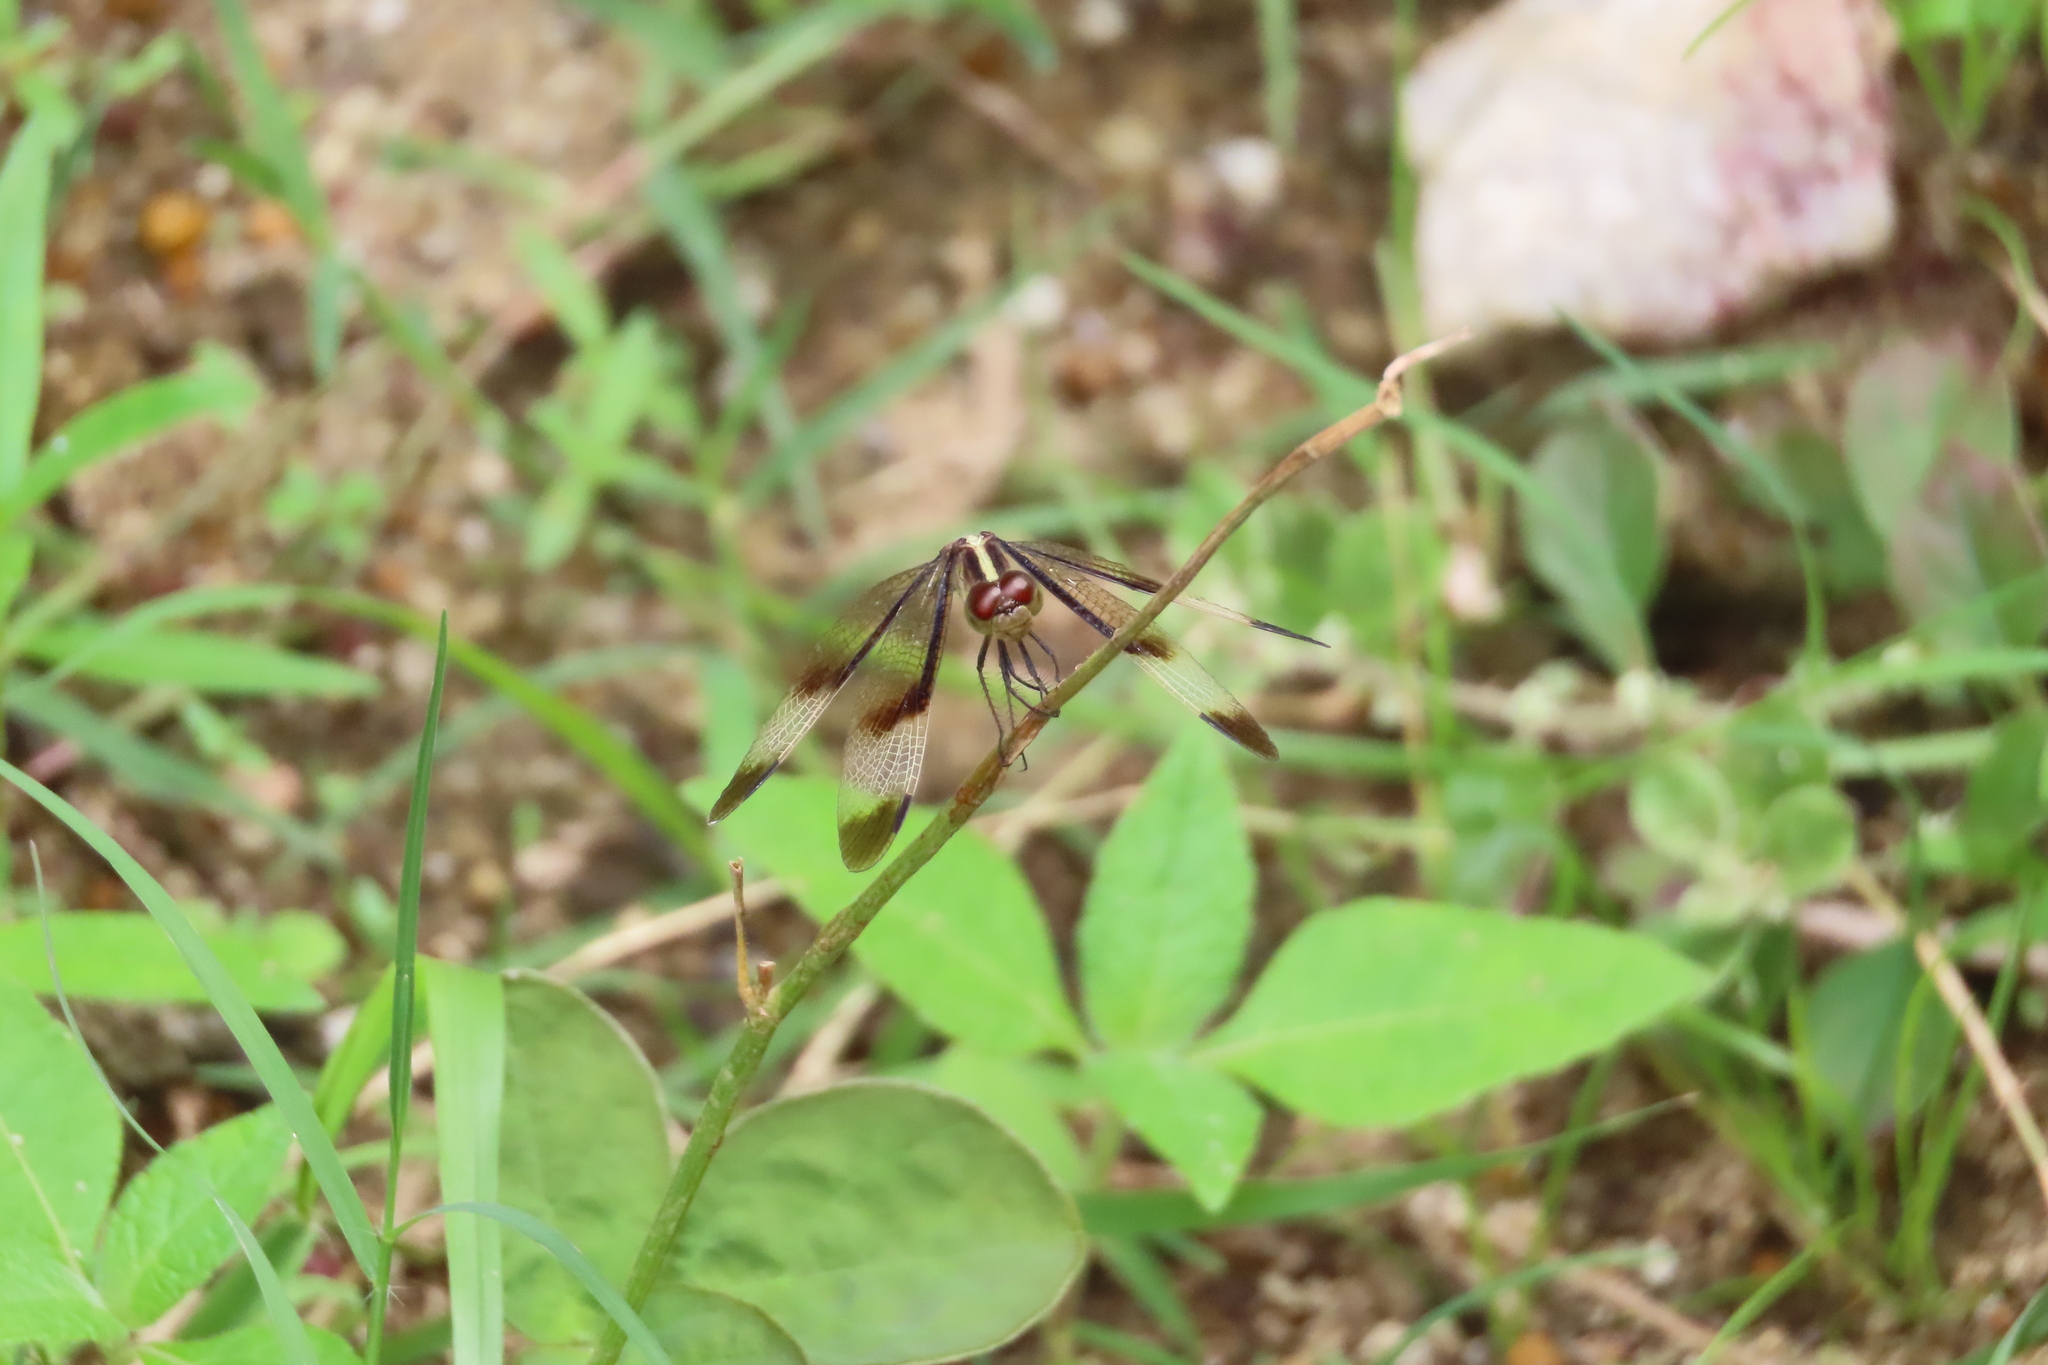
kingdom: Animalia
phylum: Arthropoda
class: Insecta
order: Odonata
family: Libellulidae
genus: Neurothemis
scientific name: Neurothemis tullia
